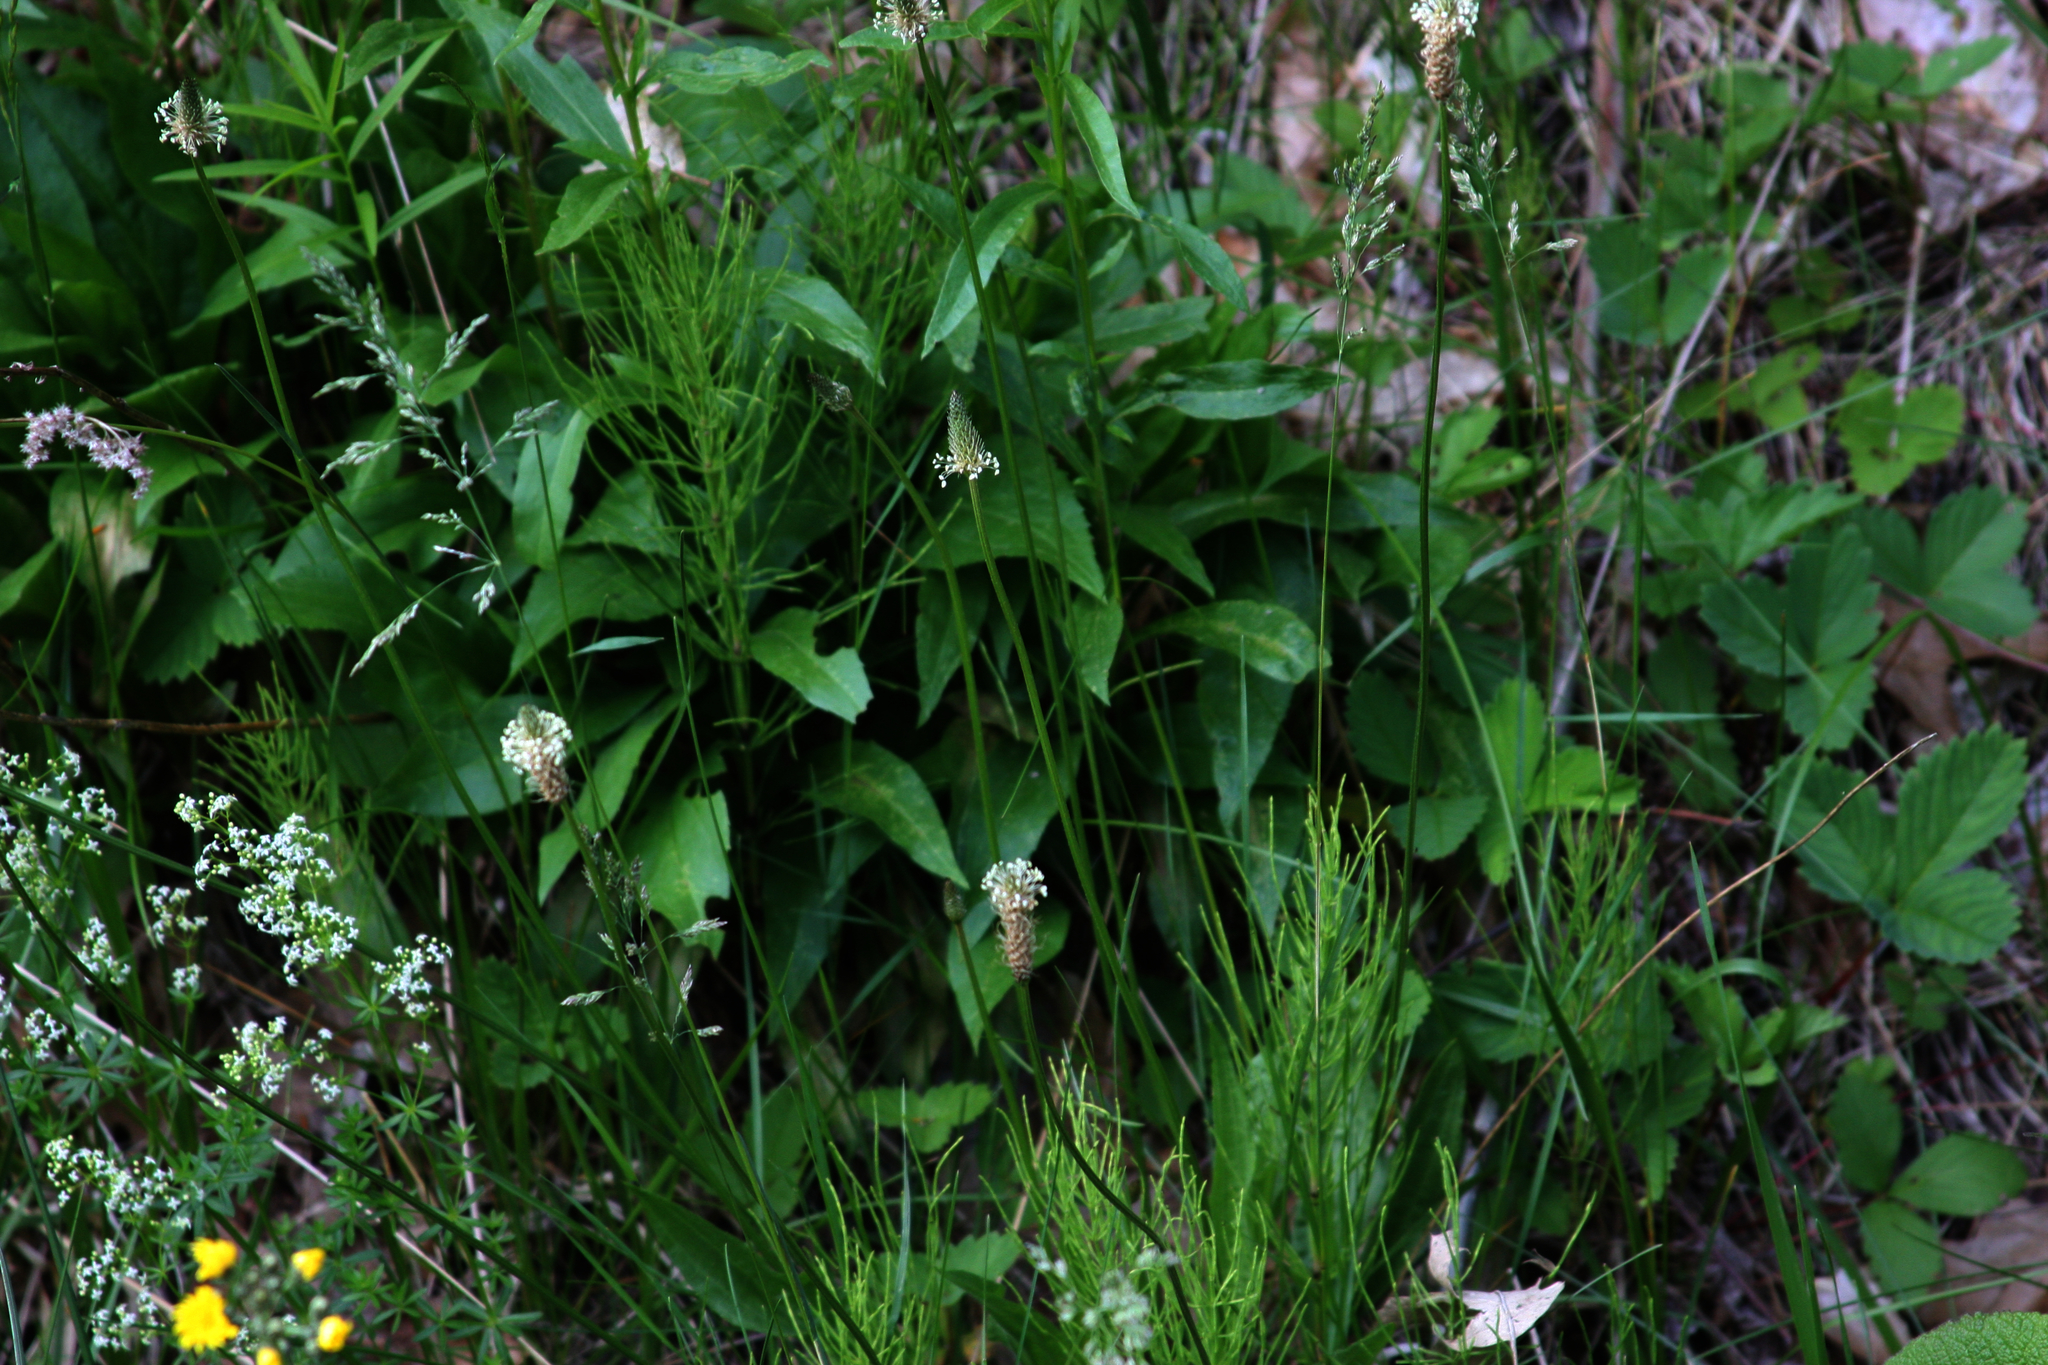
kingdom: Plantae
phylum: Tracheophyta
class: Polypodiopsida
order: Equisetales
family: Equisetaceae
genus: Equisetum
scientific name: Equisetum arvense
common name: Field horsetail
